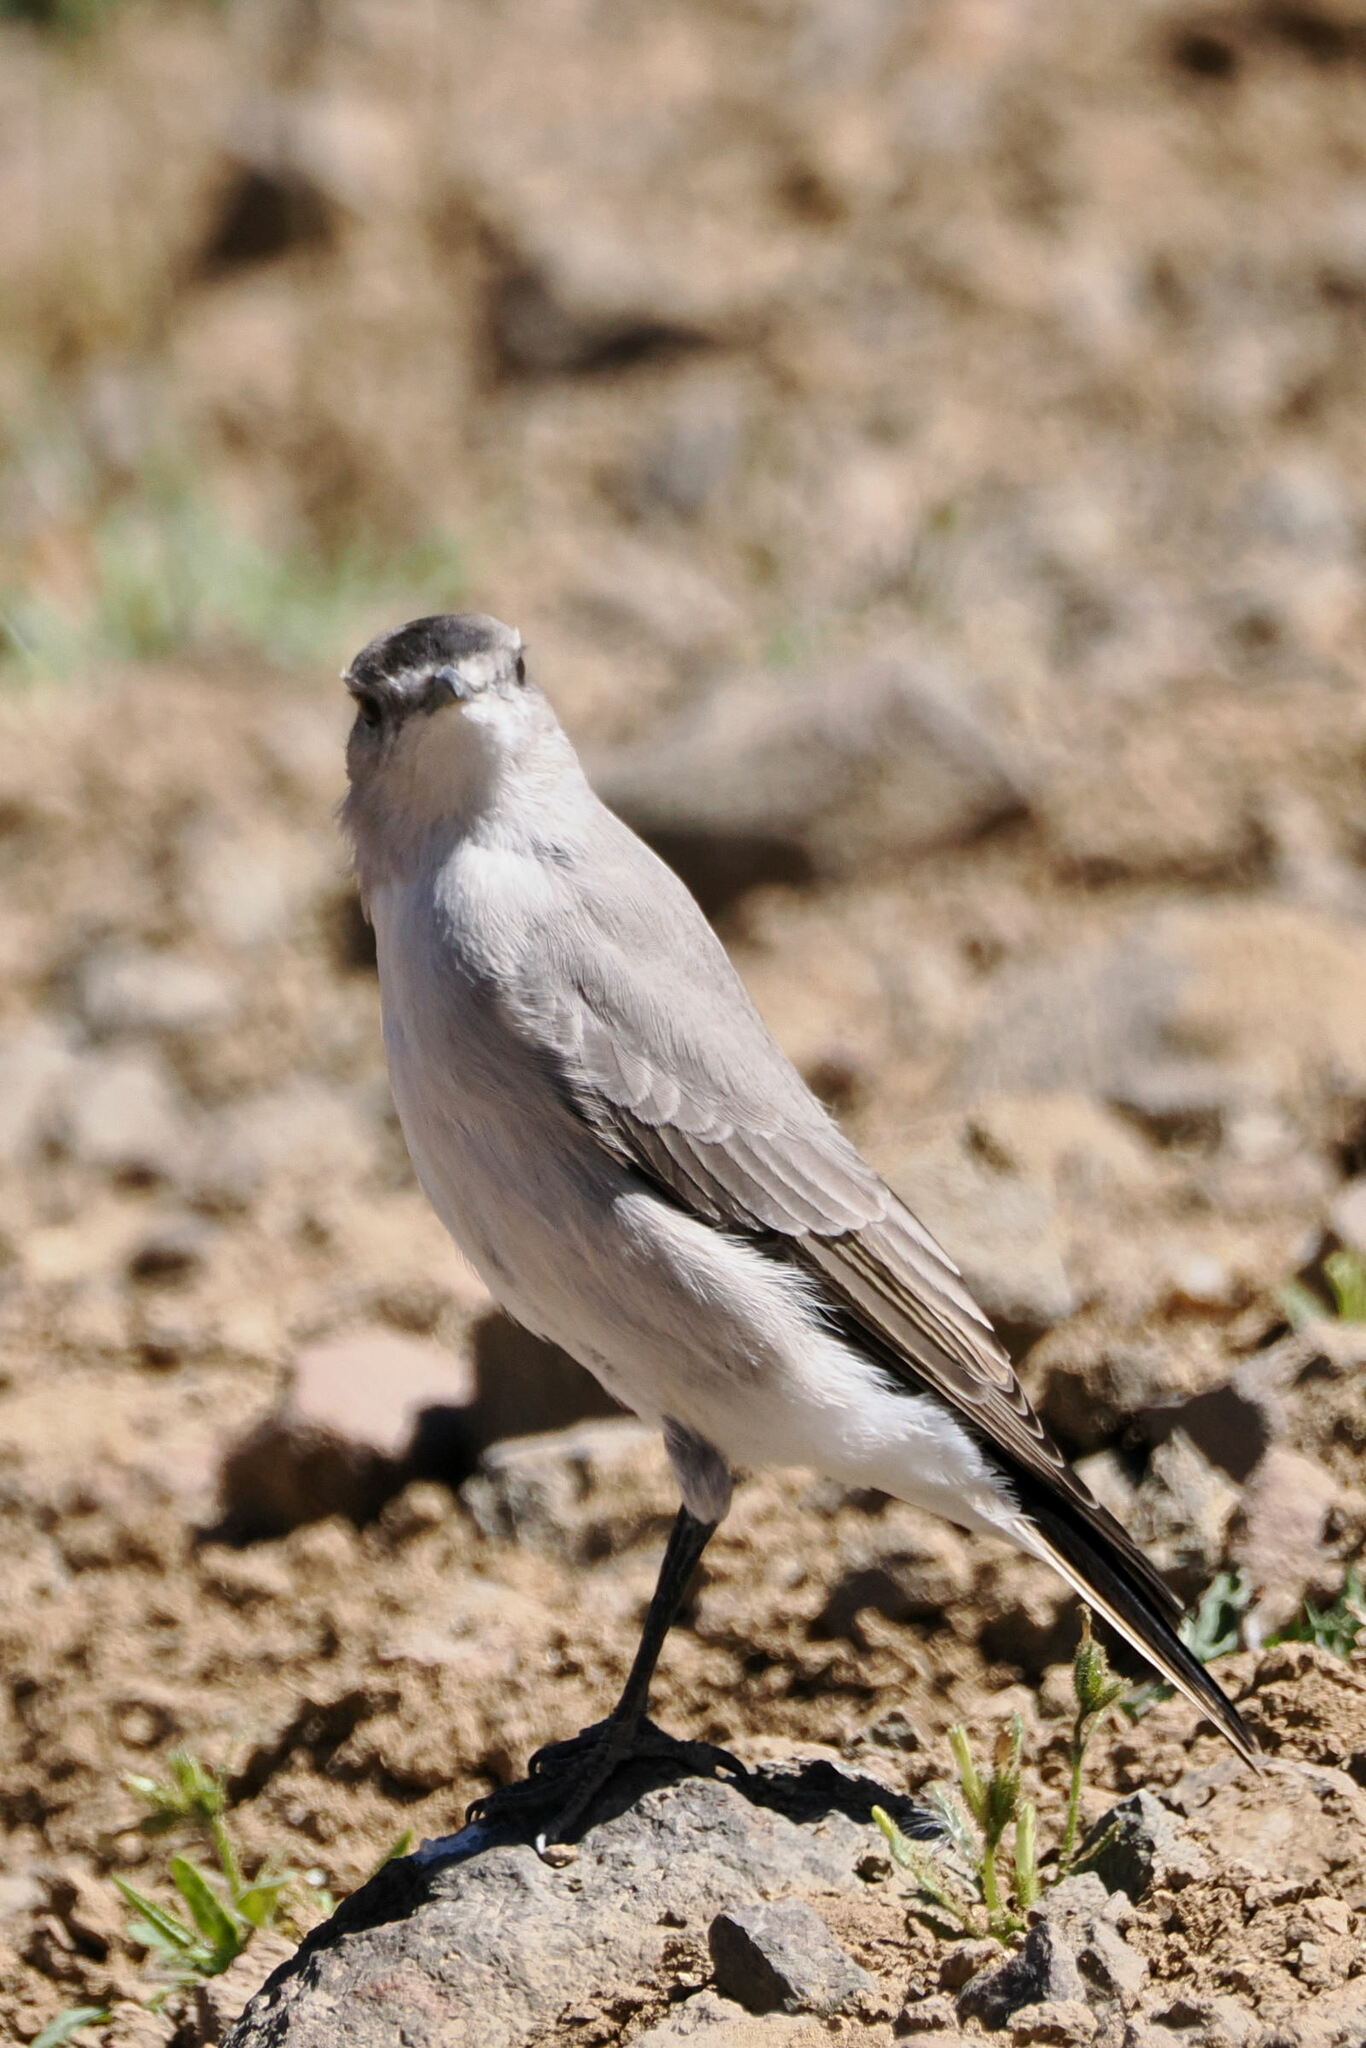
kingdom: Animalia
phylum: Chordata
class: Aves
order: Passeriformes
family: Tyrannidae
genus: Muscisaxicola
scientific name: Muscisaxicola frontalis
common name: Black-fronted ground tyrant
